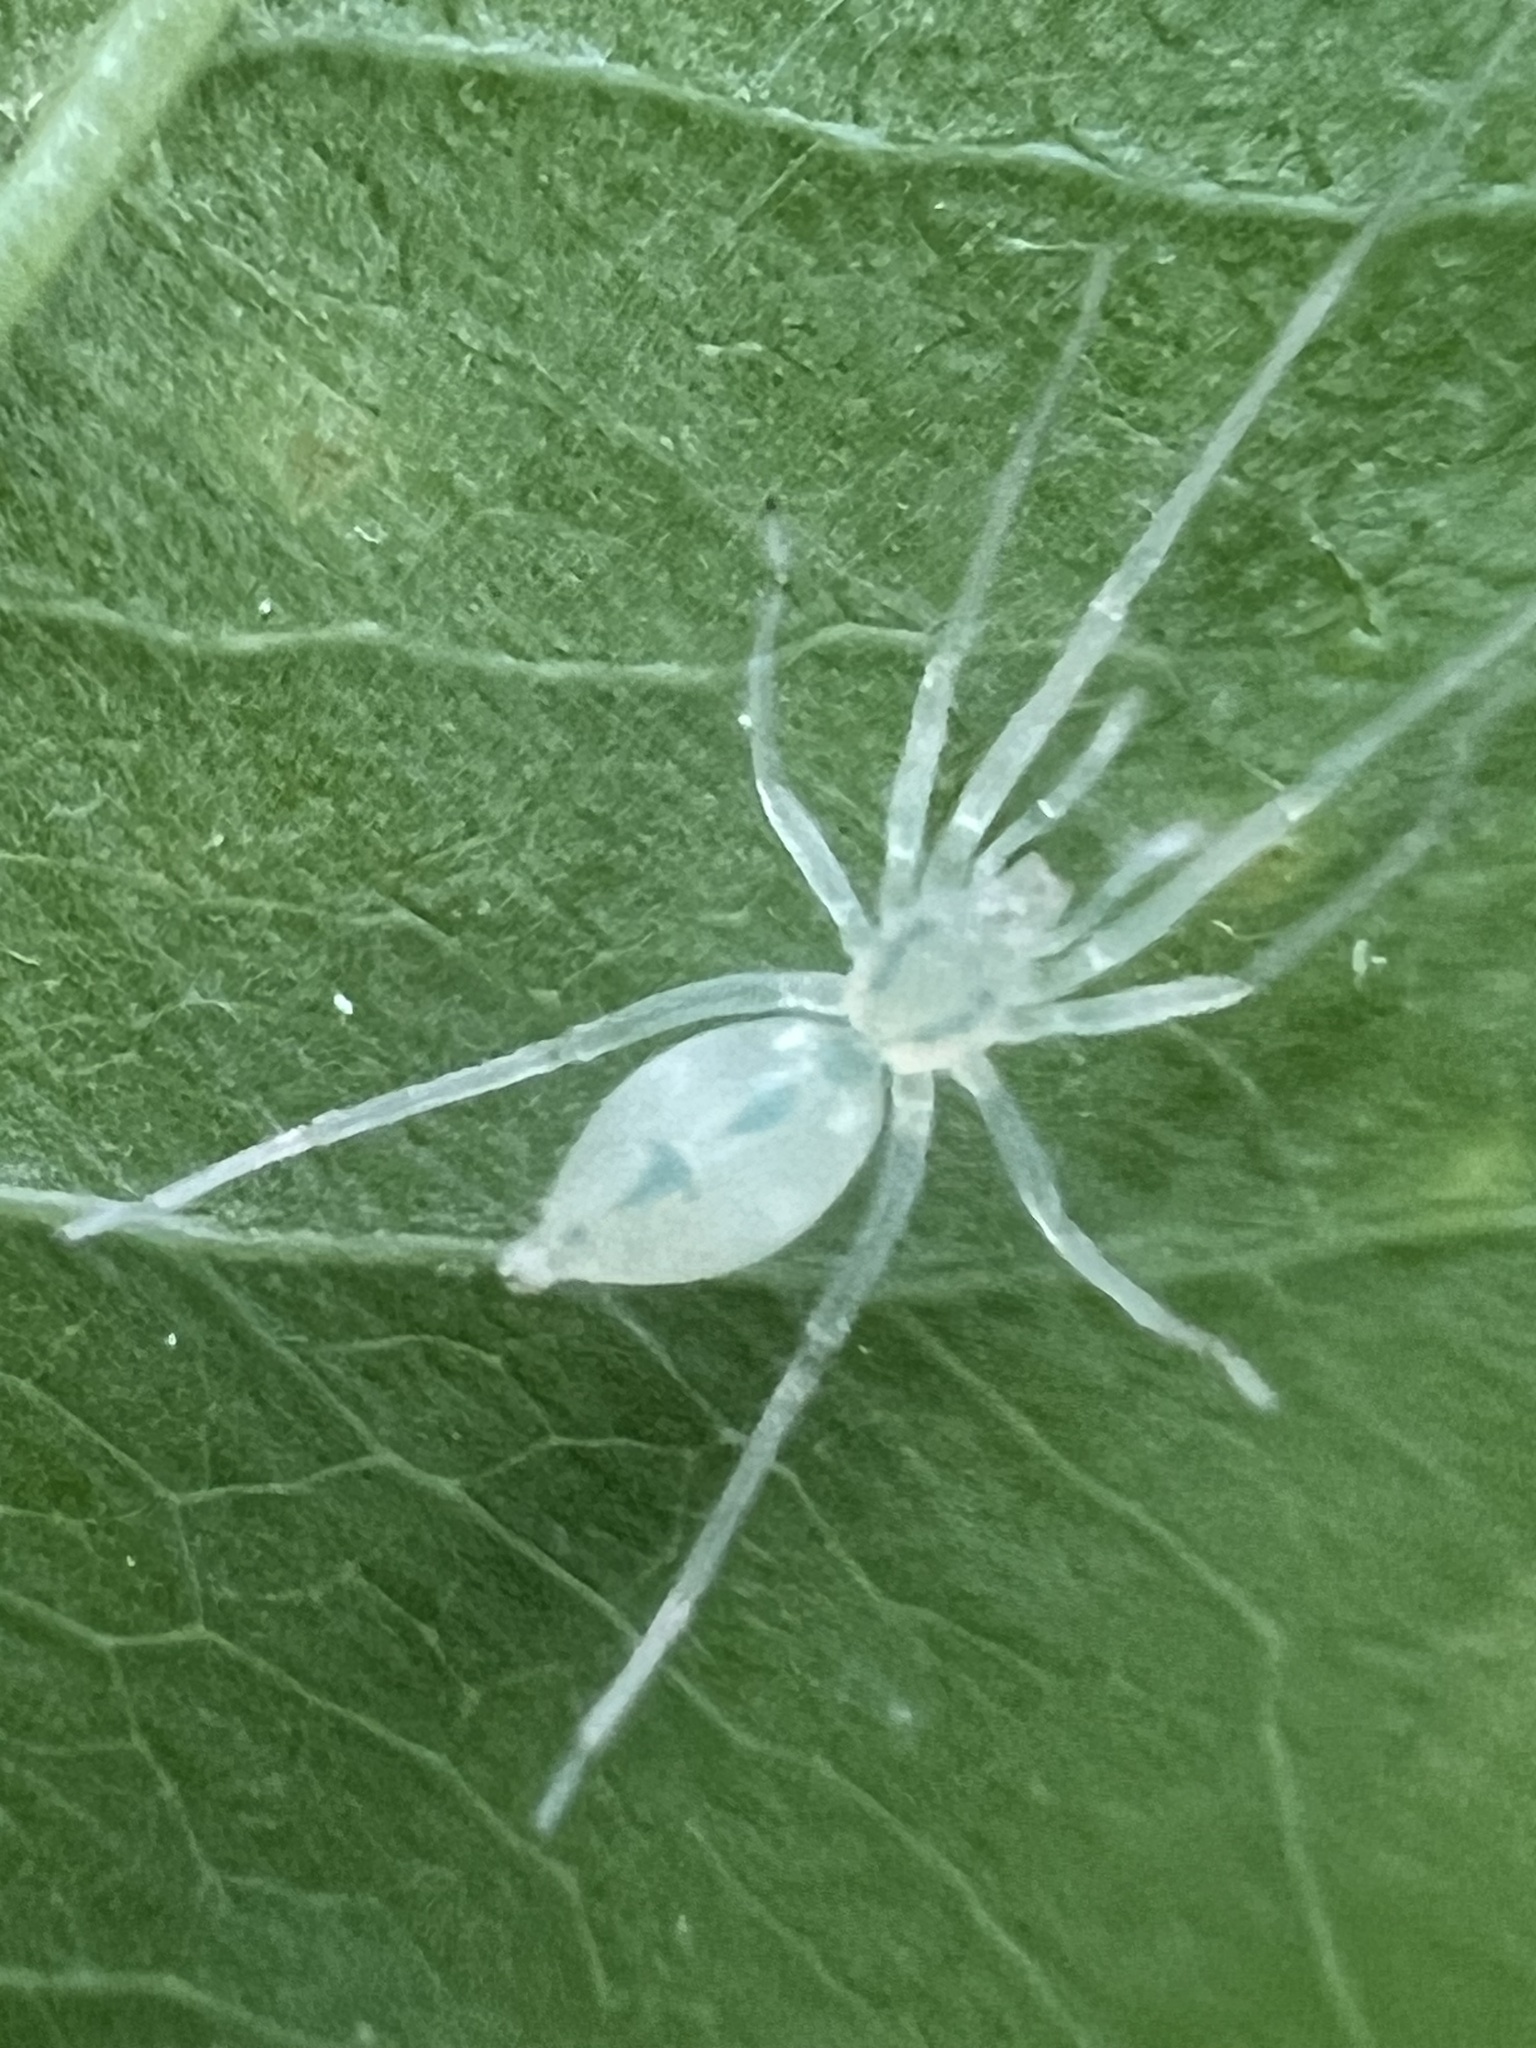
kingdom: Animalia
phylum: Arthropoda
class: Arachnida
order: Araneae
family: Anyphaenidae
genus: Wulfila
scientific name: Wulfila albens
